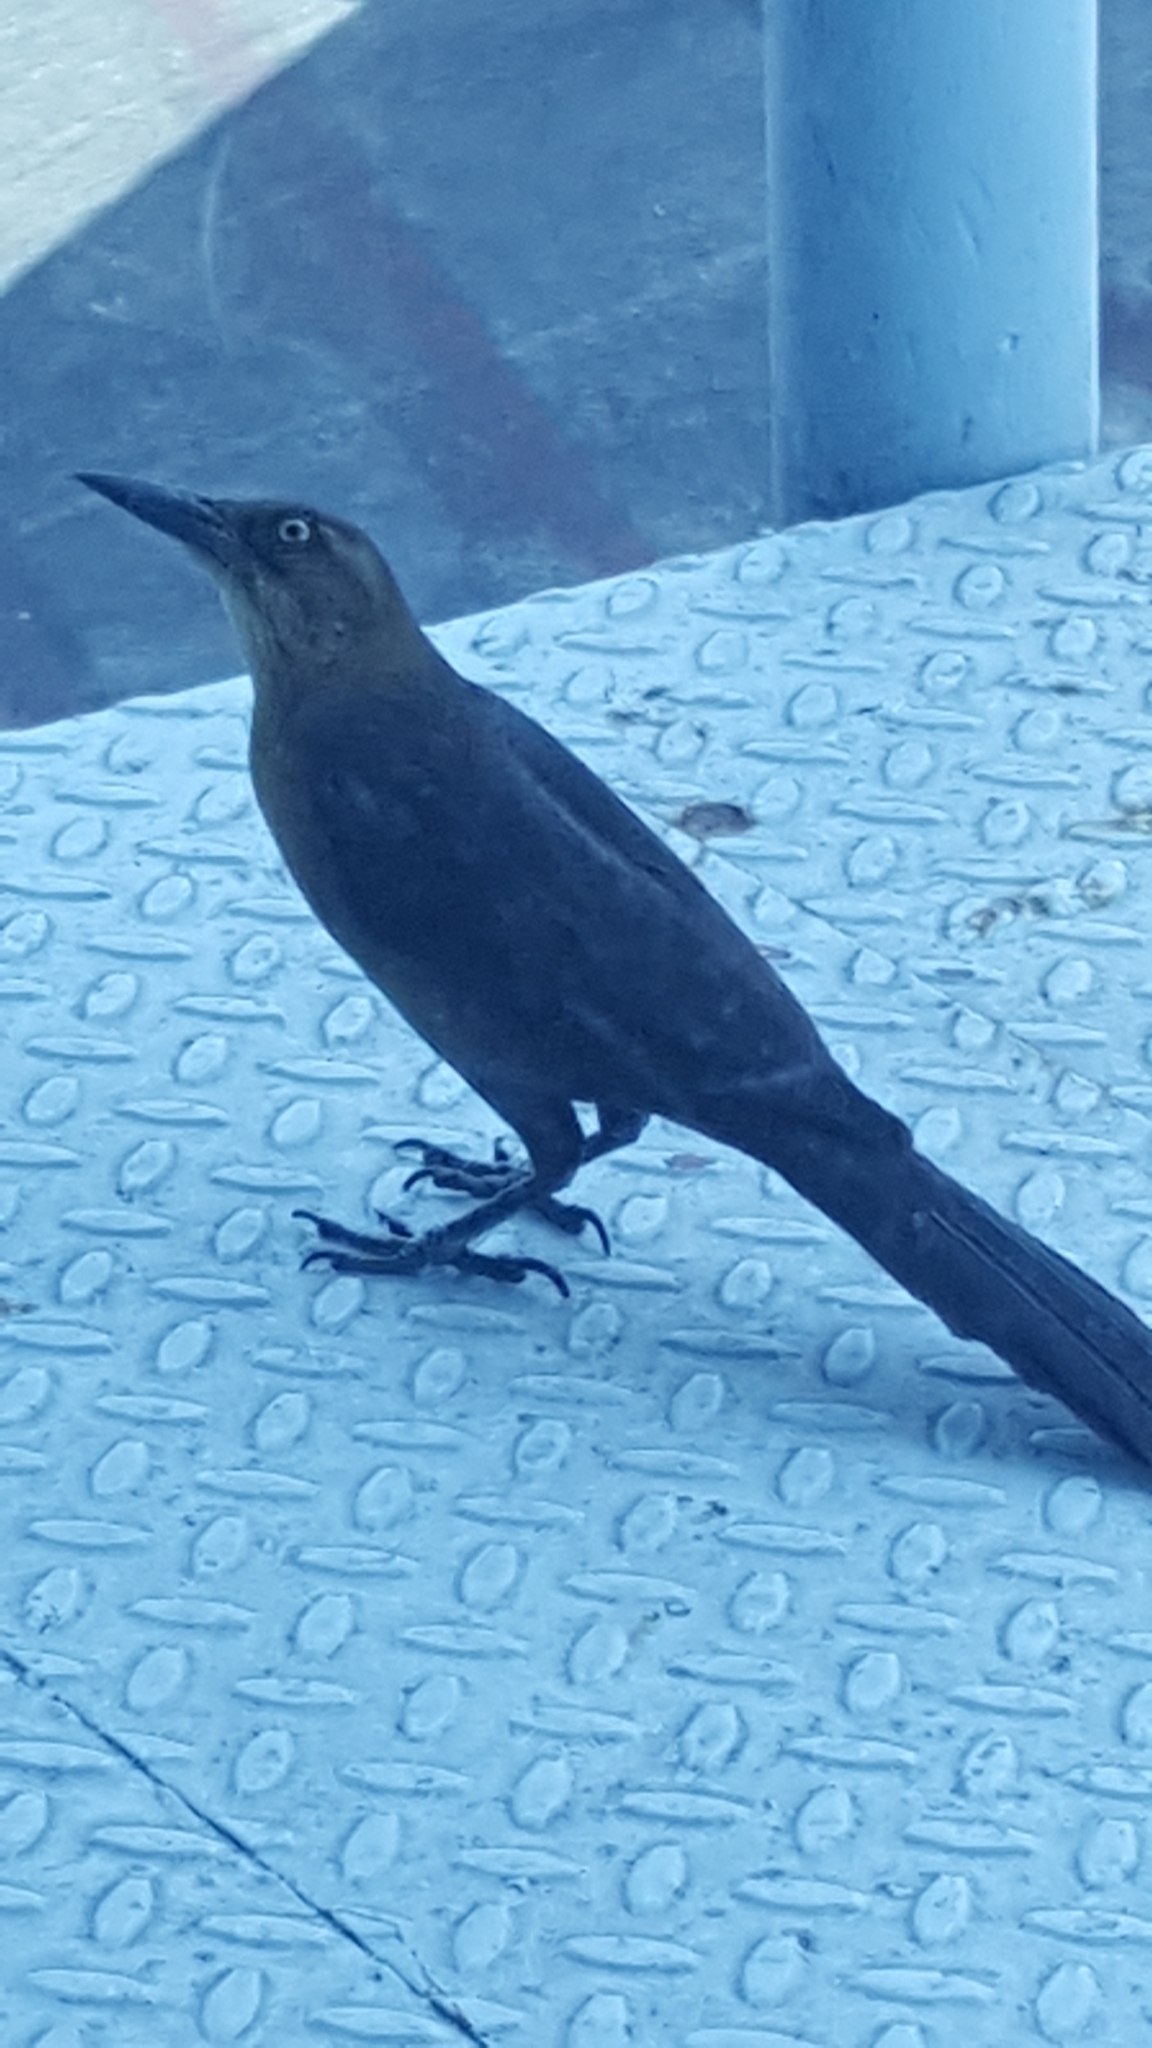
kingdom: Animalia
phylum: Chordata
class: Aves
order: Passeriformes
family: Icteridae
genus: Quiscalus
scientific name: Quiscalus mexicanus
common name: Great-tailed grackle
